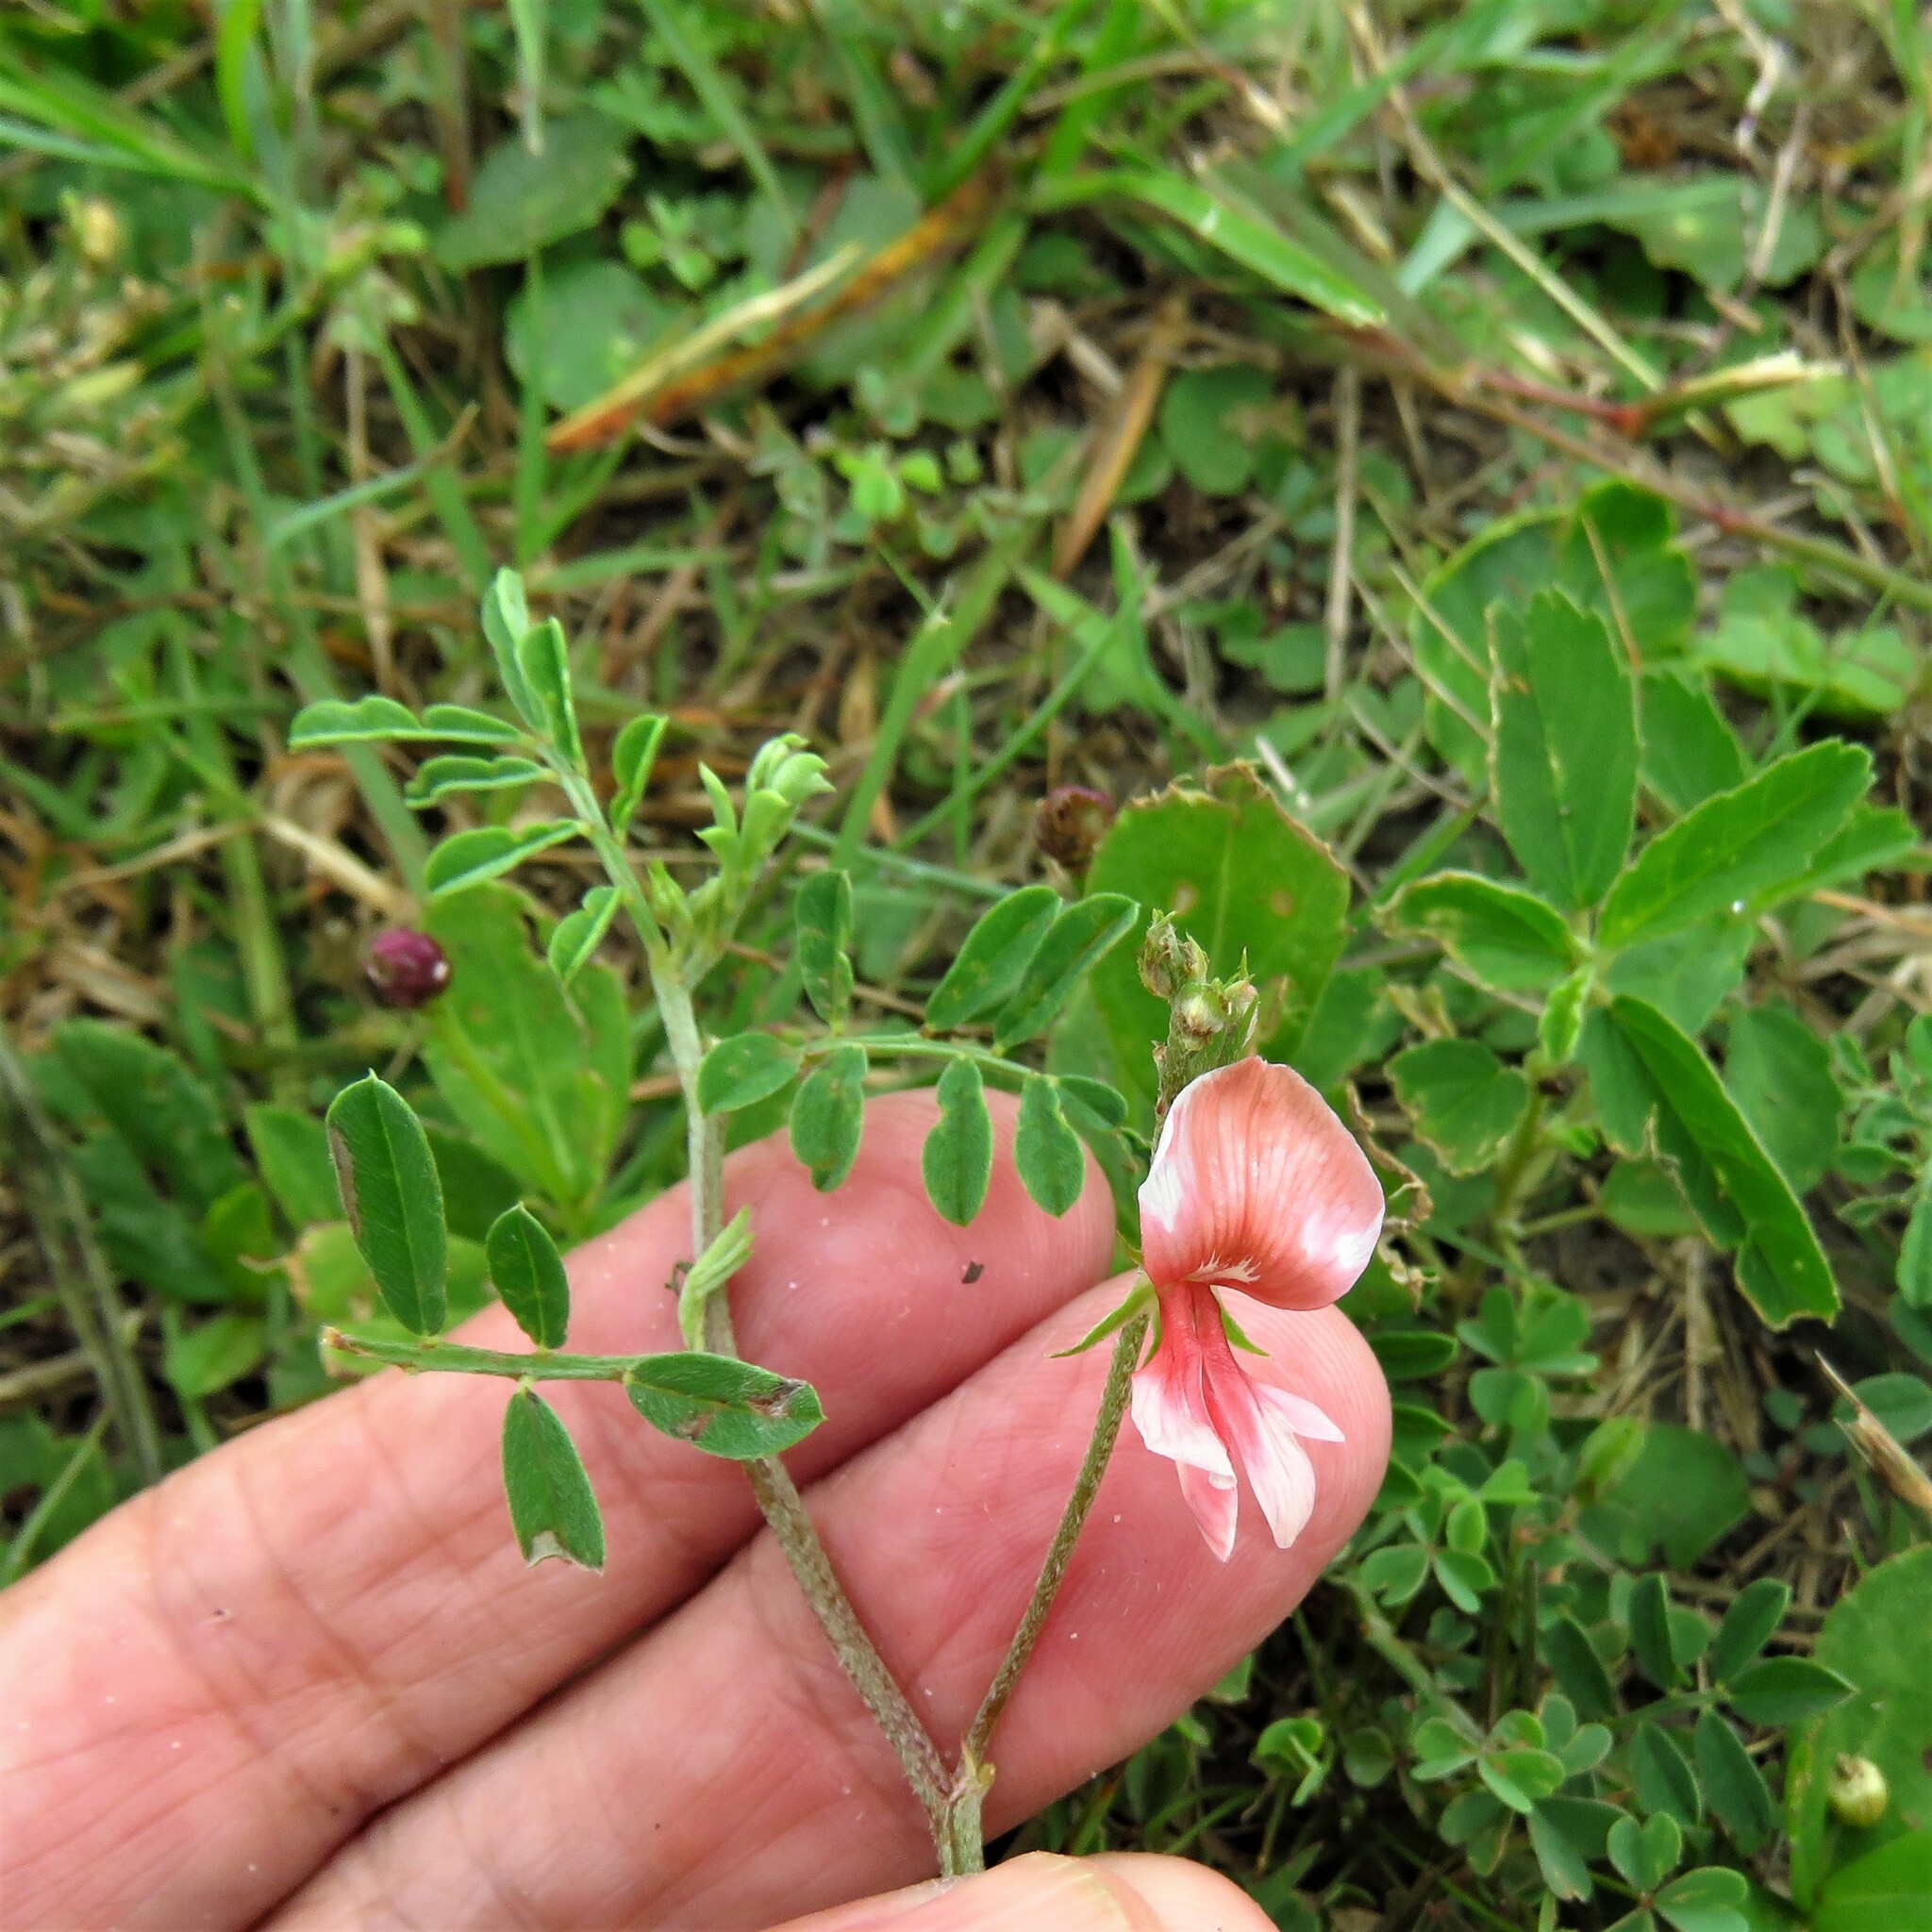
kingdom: Plantae
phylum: Tracheophyta
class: Magnoliopsida
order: Fabales
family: Fabaceae
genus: Indigofera
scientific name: Indigofera miniata
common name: Coast indigo
